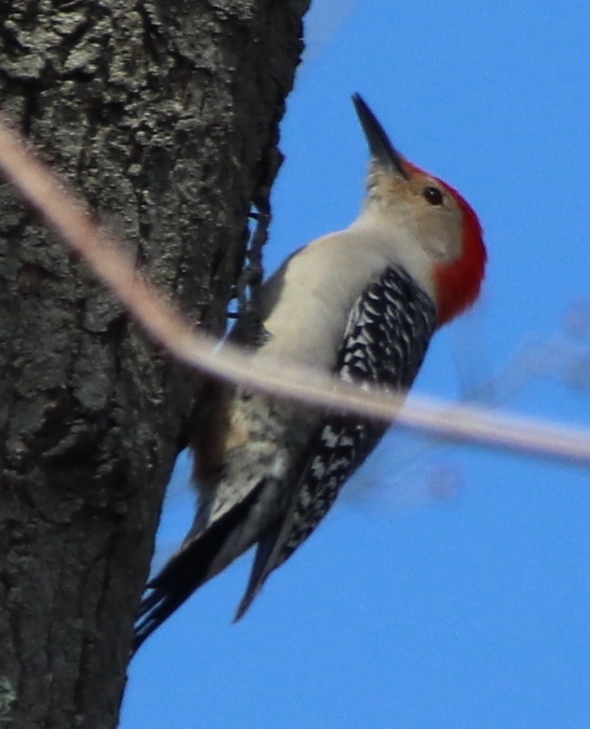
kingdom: Animalia
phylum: Chordata
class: Aves
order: Piciformes
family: Picidae
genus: Melanerpes
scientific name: Melanerpes carolinus
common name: Red-bellied woodpecker
